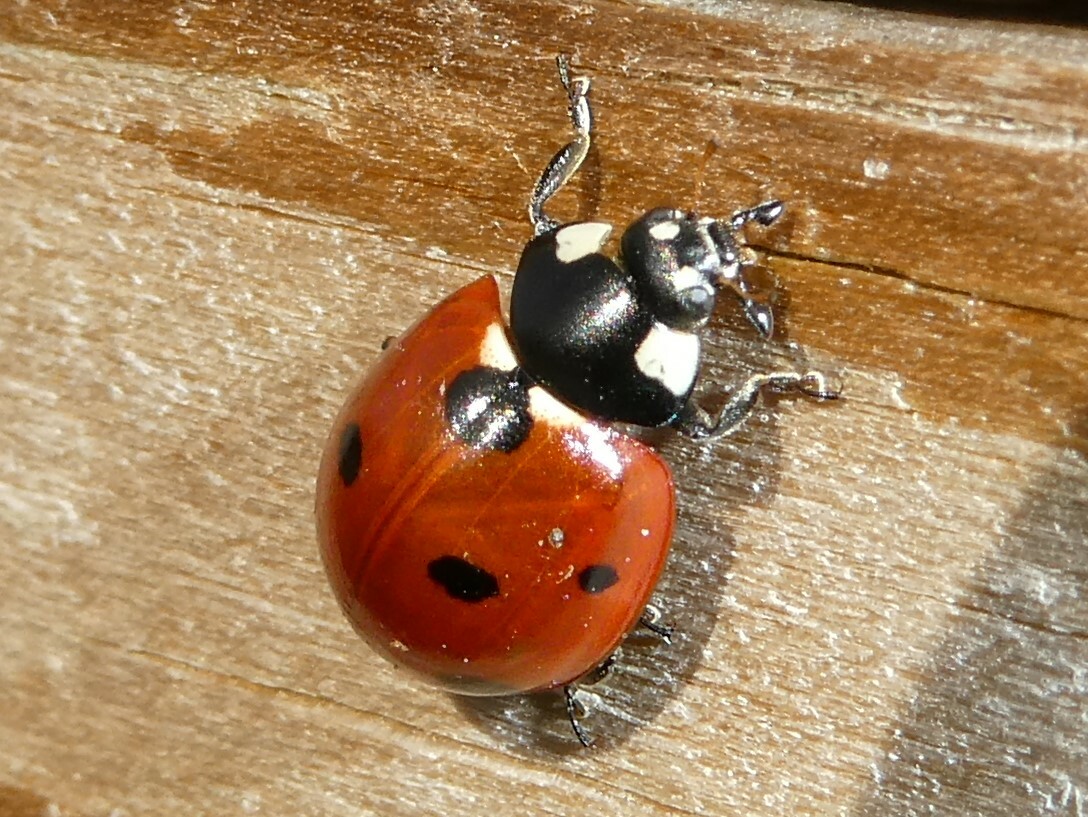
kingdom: Animalia
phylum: Arthropoda
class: Insecta
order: Coleoptera
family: Coccinellidae
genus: Coccinella
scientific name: Coccinella septempunctata
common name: Sevenspotted lady beetle
